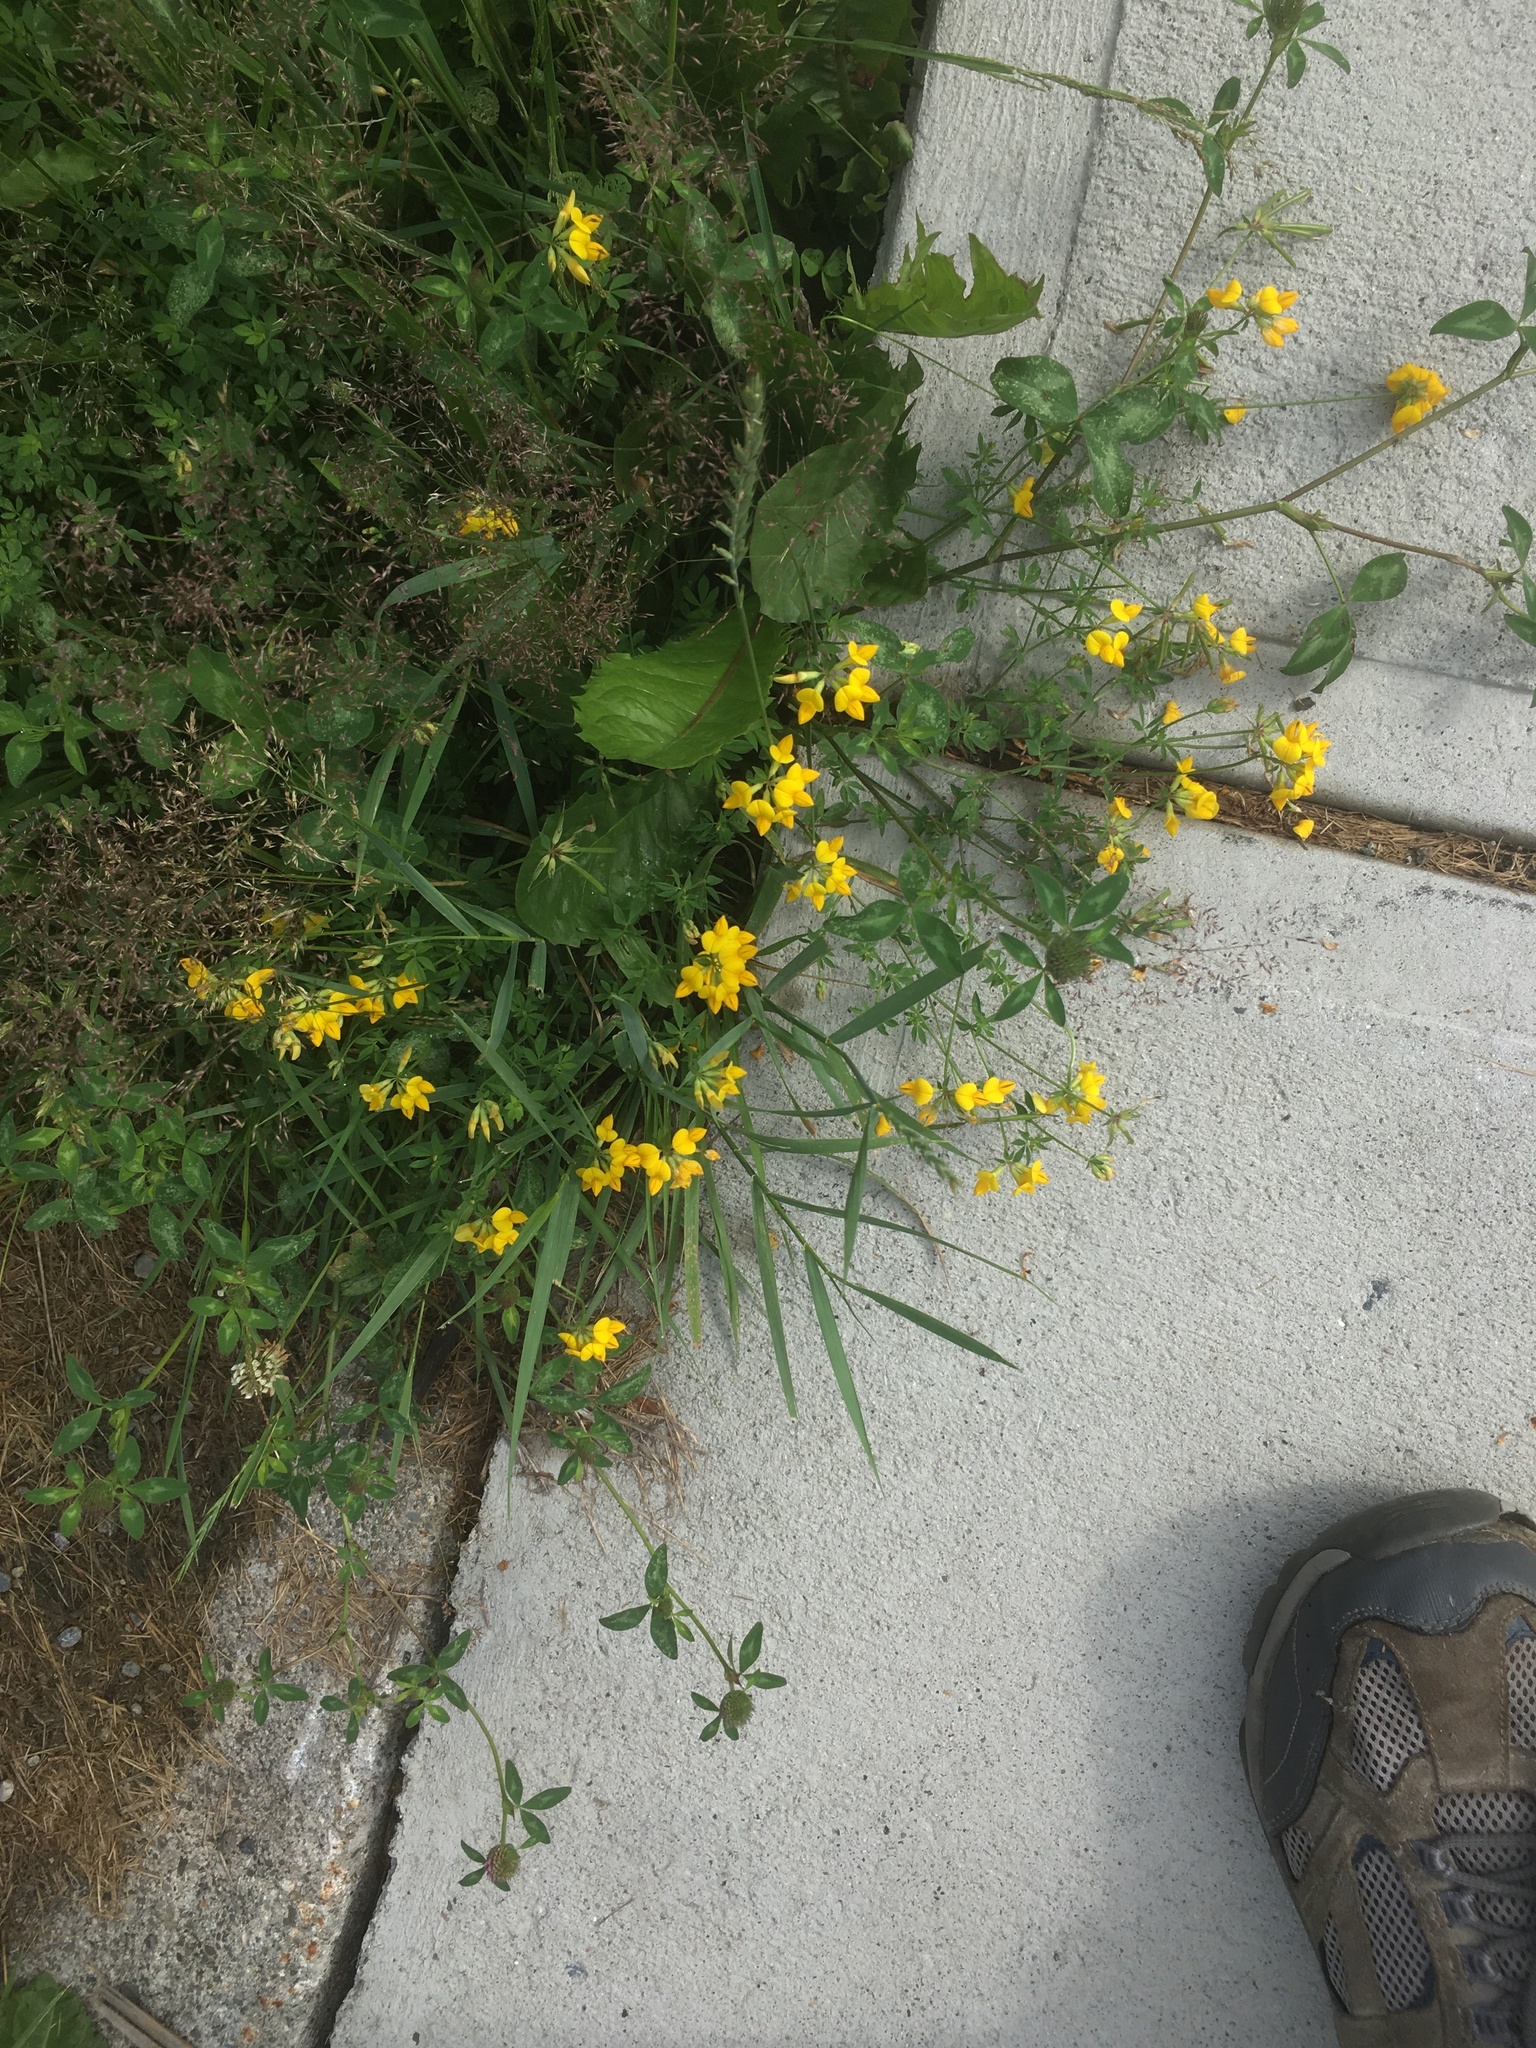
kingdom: Plantae
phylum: Tracheophyta
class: Magnoliopsida
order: Fabales
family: Fabaceae
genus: Lotus
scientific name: Lotus corniculatus
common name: Common bird's-foot-trefoil
